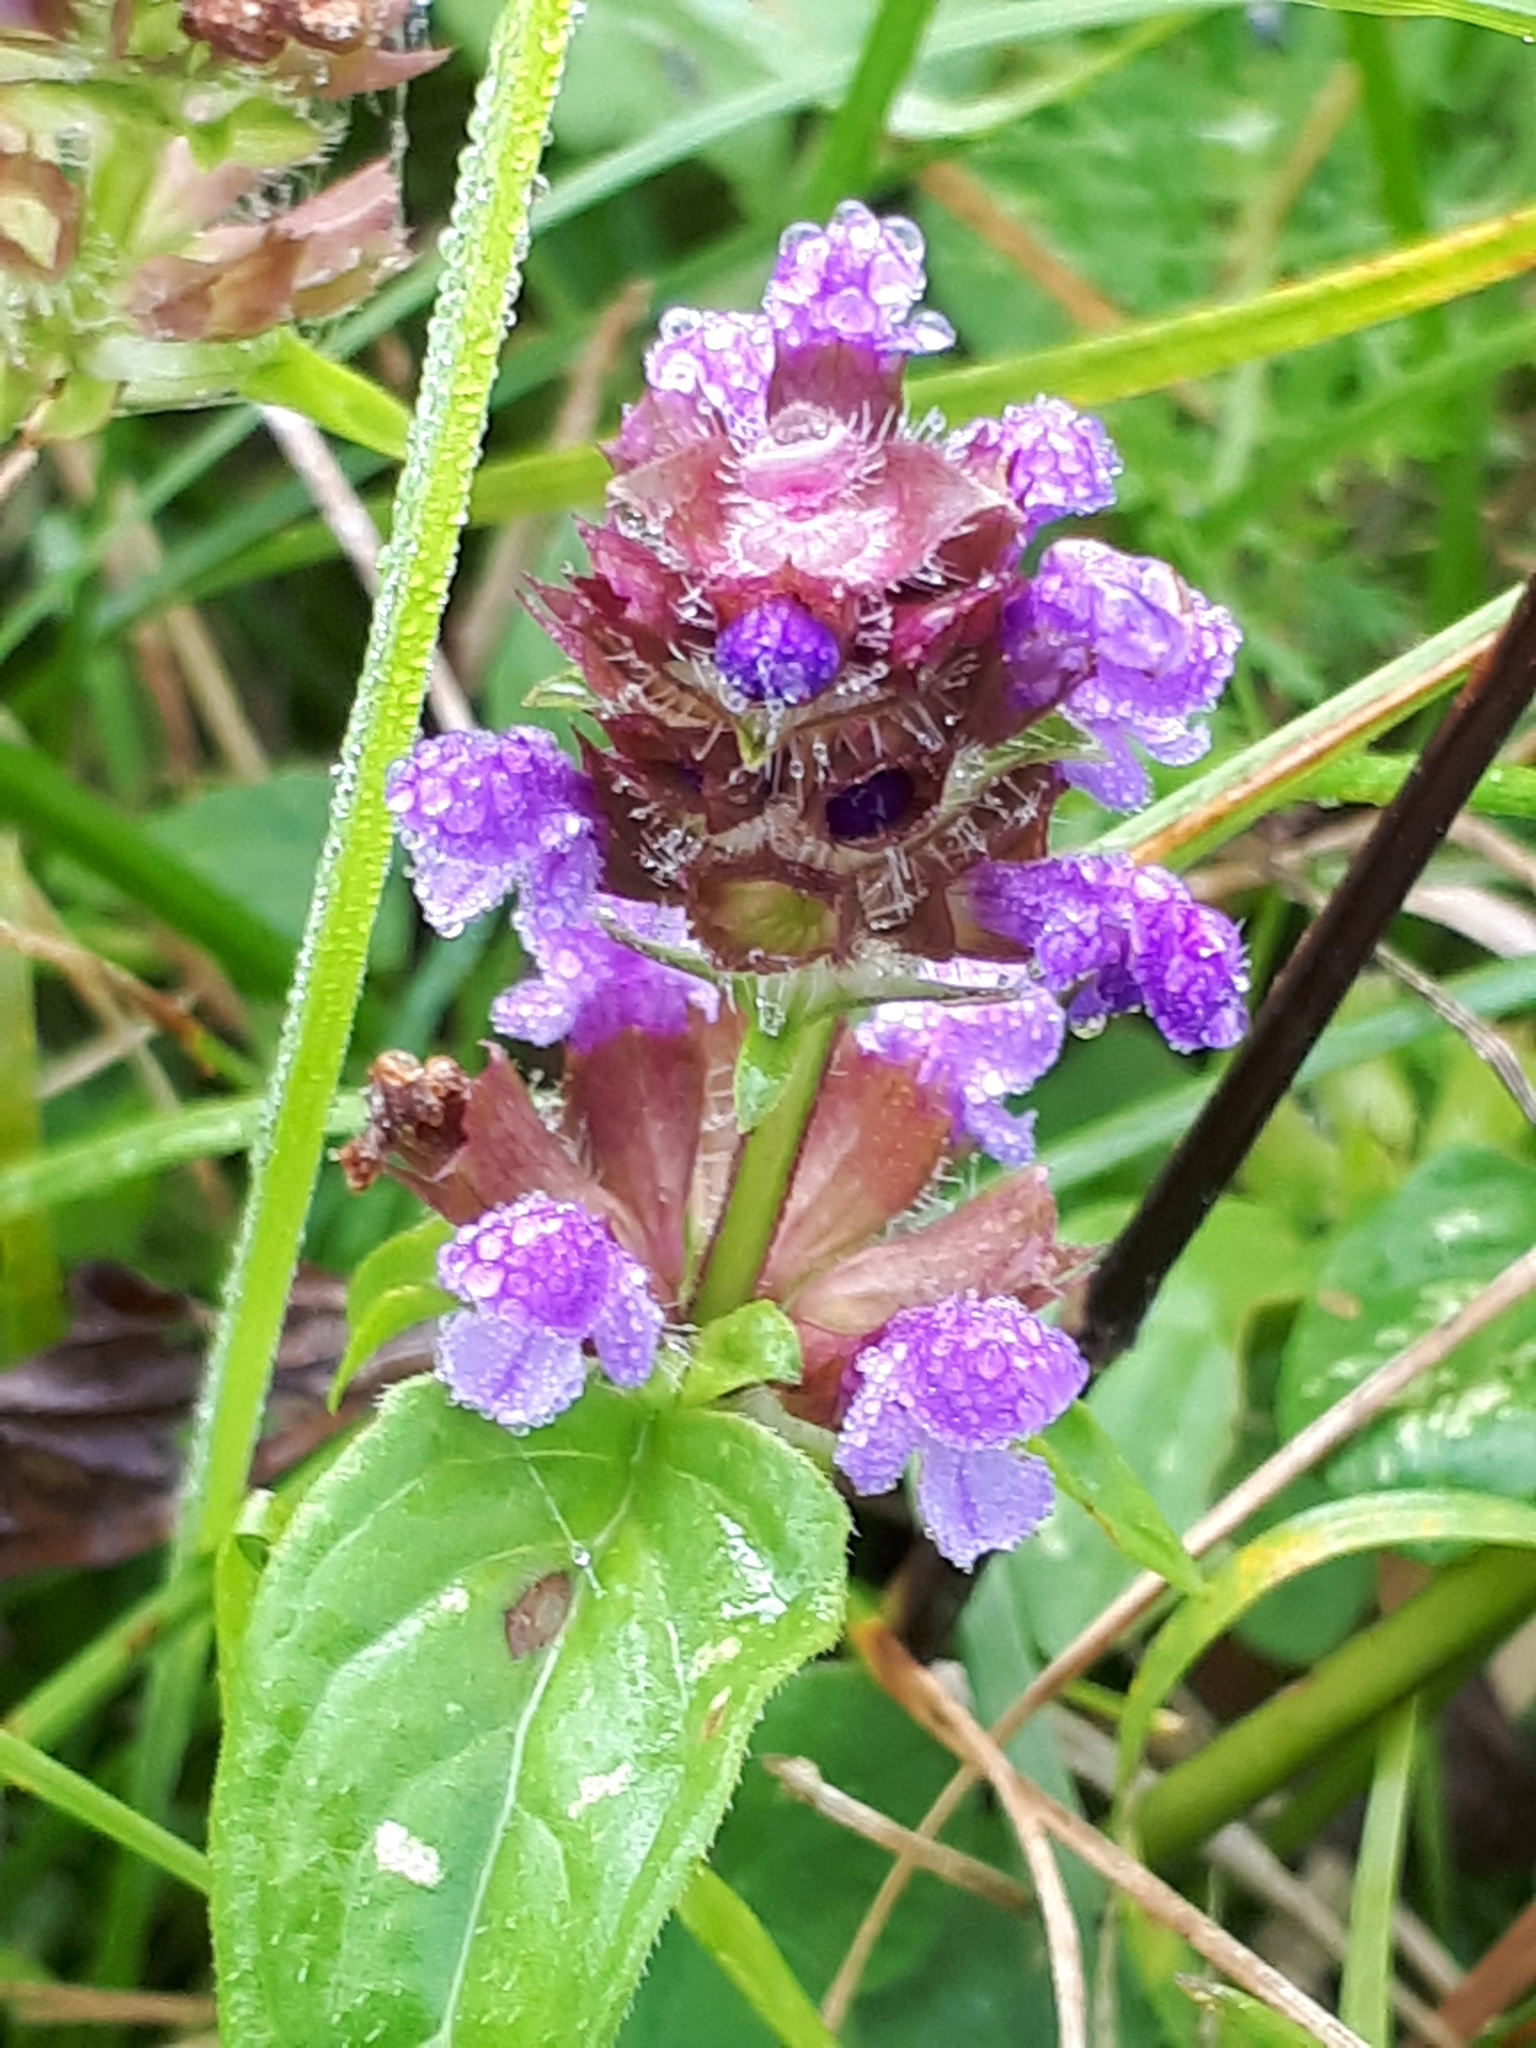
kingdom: Plantae
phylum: Tracheophyta
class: Magnoliopsida
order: Lamiales
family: Lamiaceae
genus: Prunella
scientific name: Prunella vulgaris
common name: Heal-all
